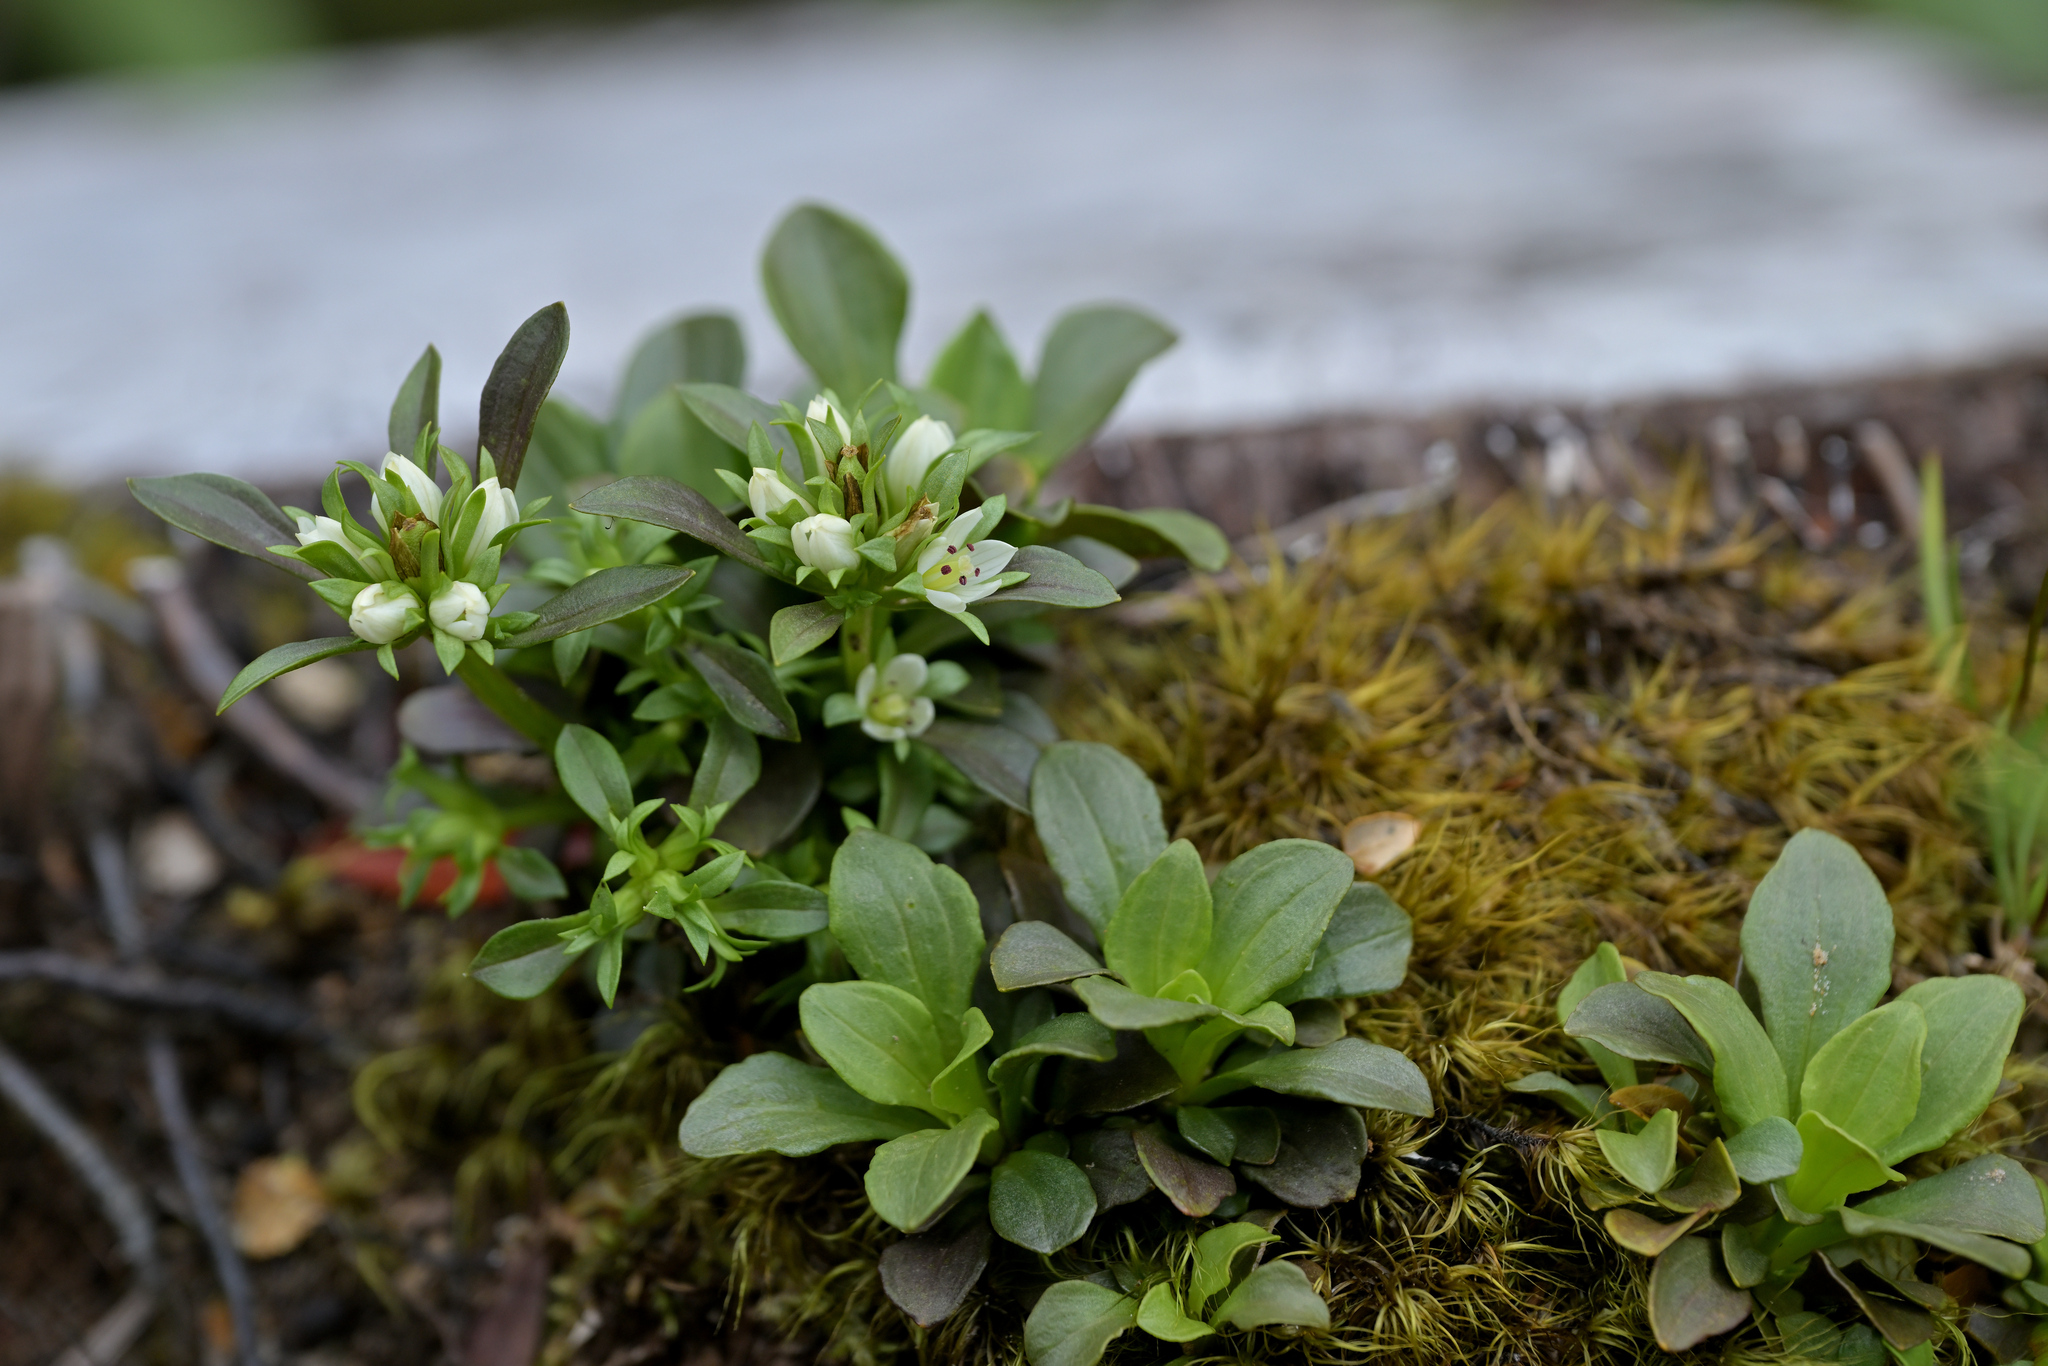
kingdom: Plantae
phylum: Tracheophyta
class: Magnoliopsida
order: Gentianales
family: Gentianaceae
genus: Gentianella
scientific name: Gentianella spenceri
